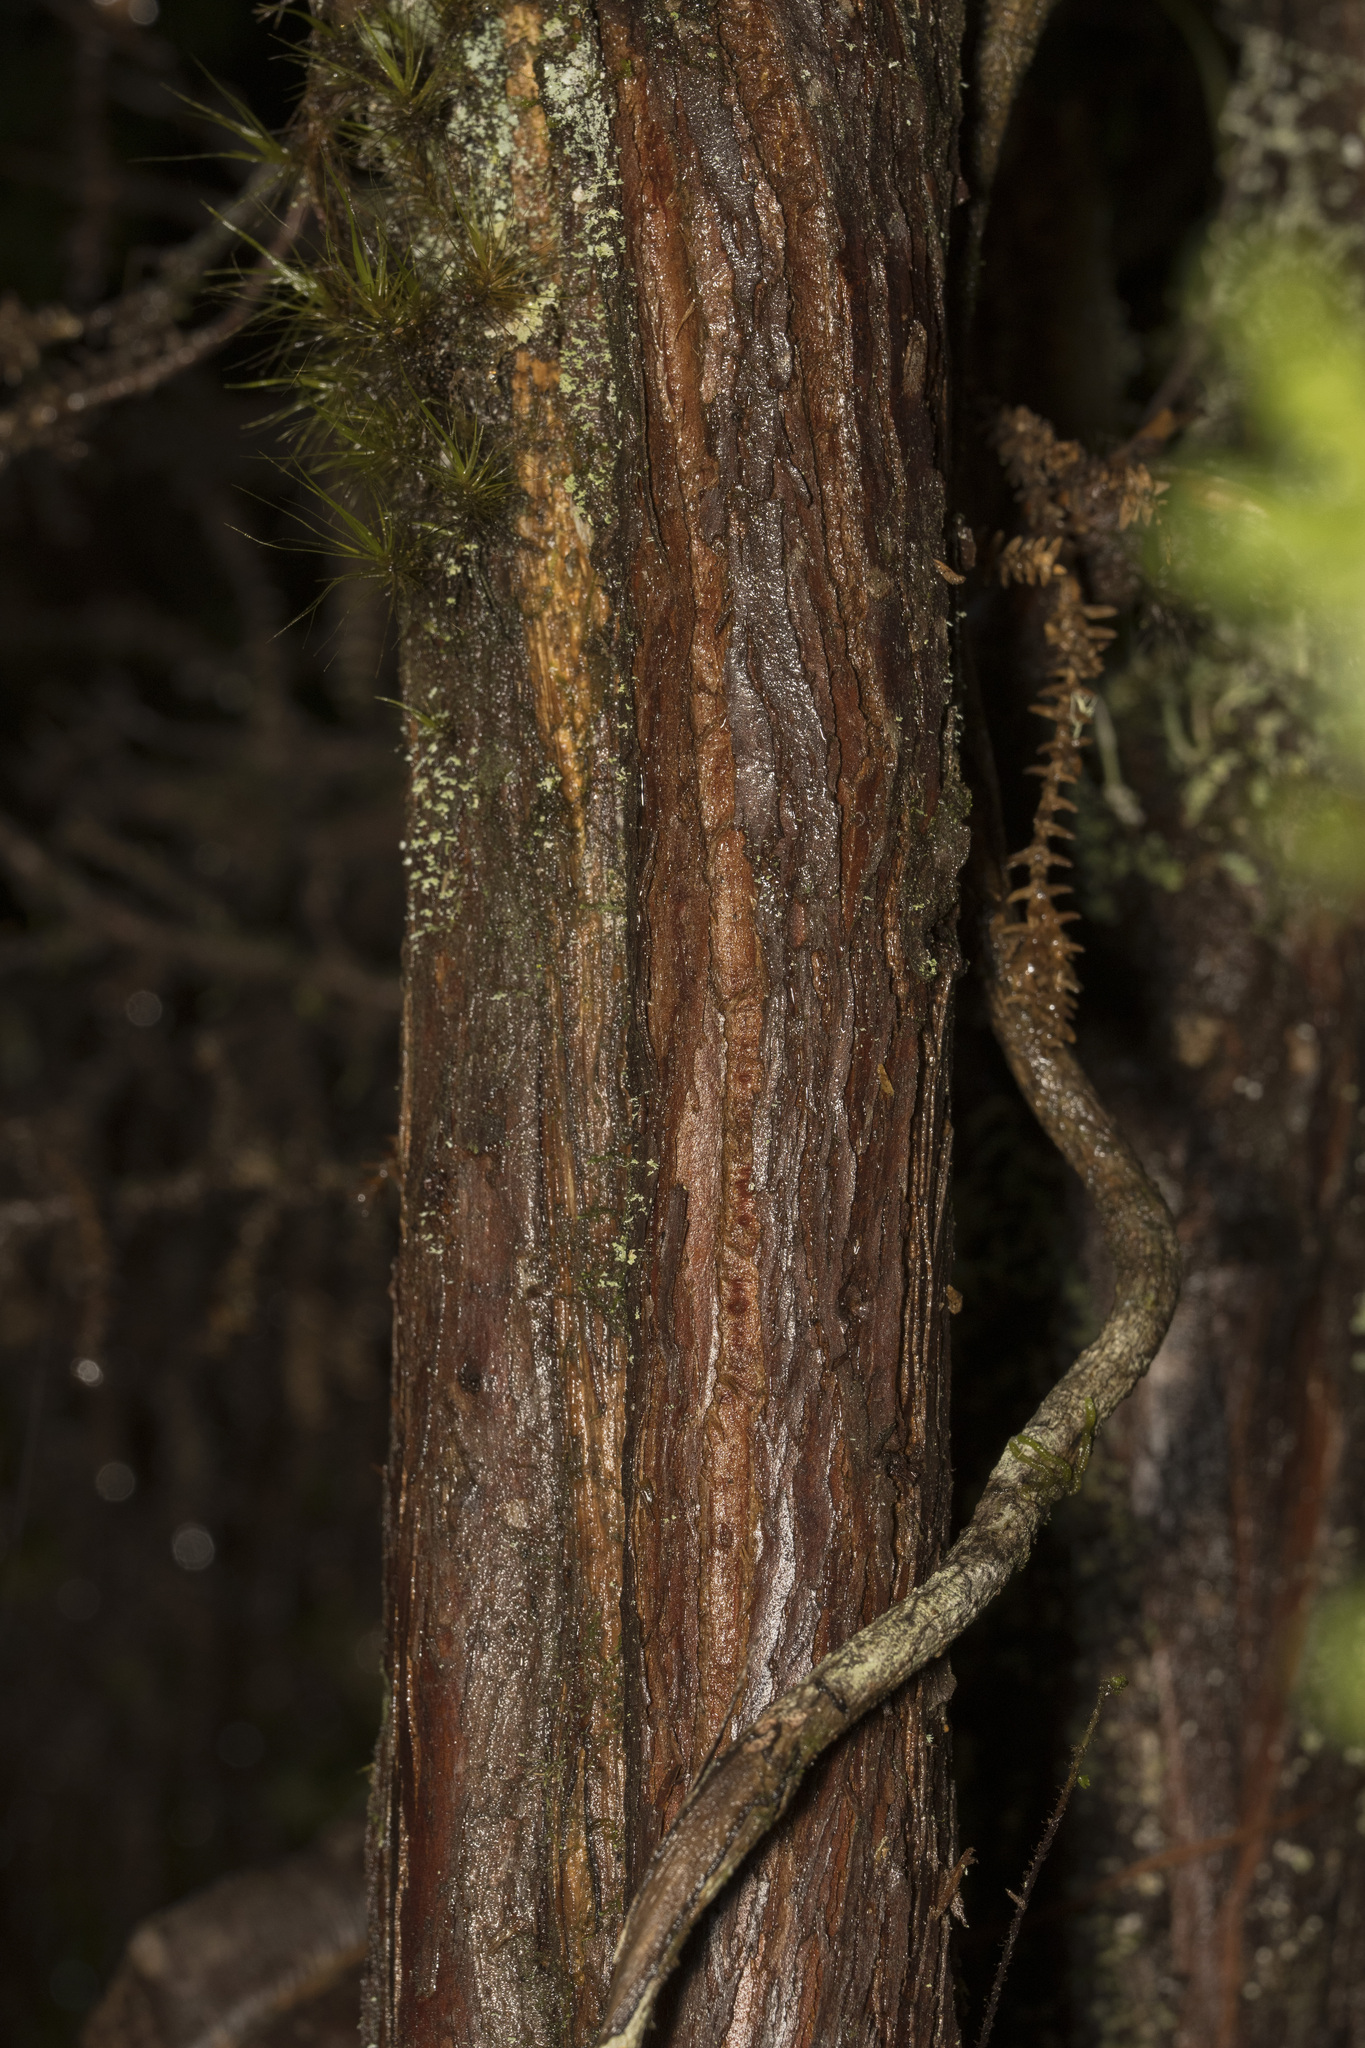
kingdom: Plantae
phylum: Tracheophyta
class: Pinopsida
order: Pinales
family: Cupressaceae
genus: Pilgerodendron
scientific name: Pilgerodendron uviferum
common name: Guaitecas cypress
